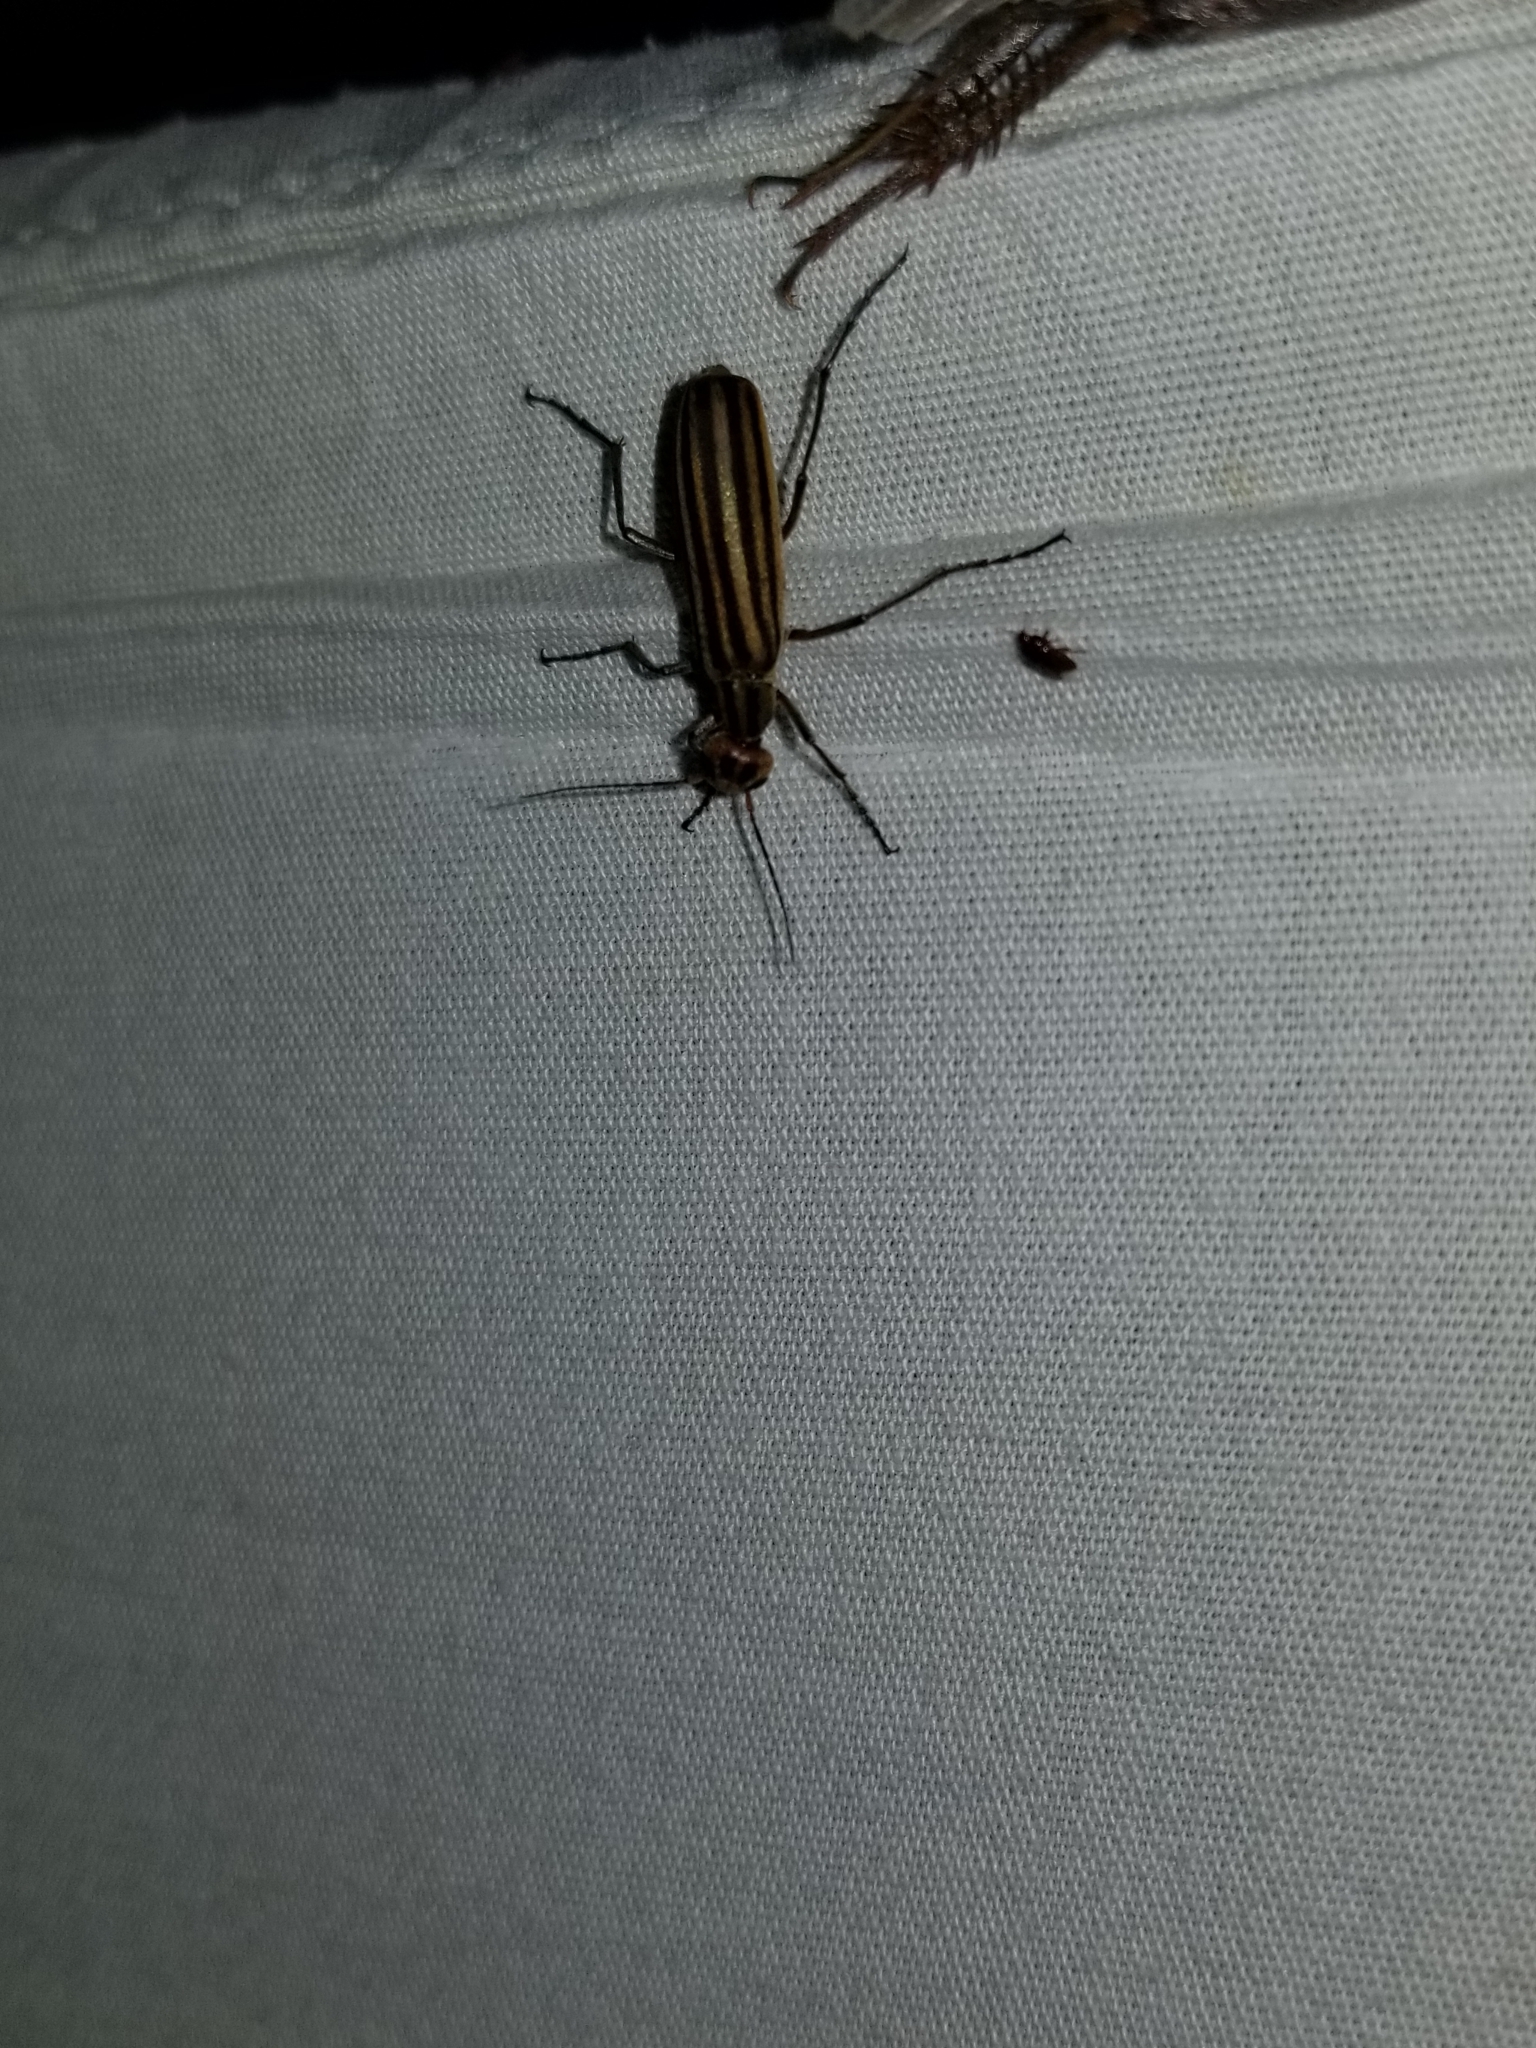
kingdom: Animalia
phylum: Arthropoda
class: Insecta
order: Coleoptera
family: Meloidae
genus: Epicauta
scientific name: Epicauta vittata
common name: Old-fashioned potato beetle
